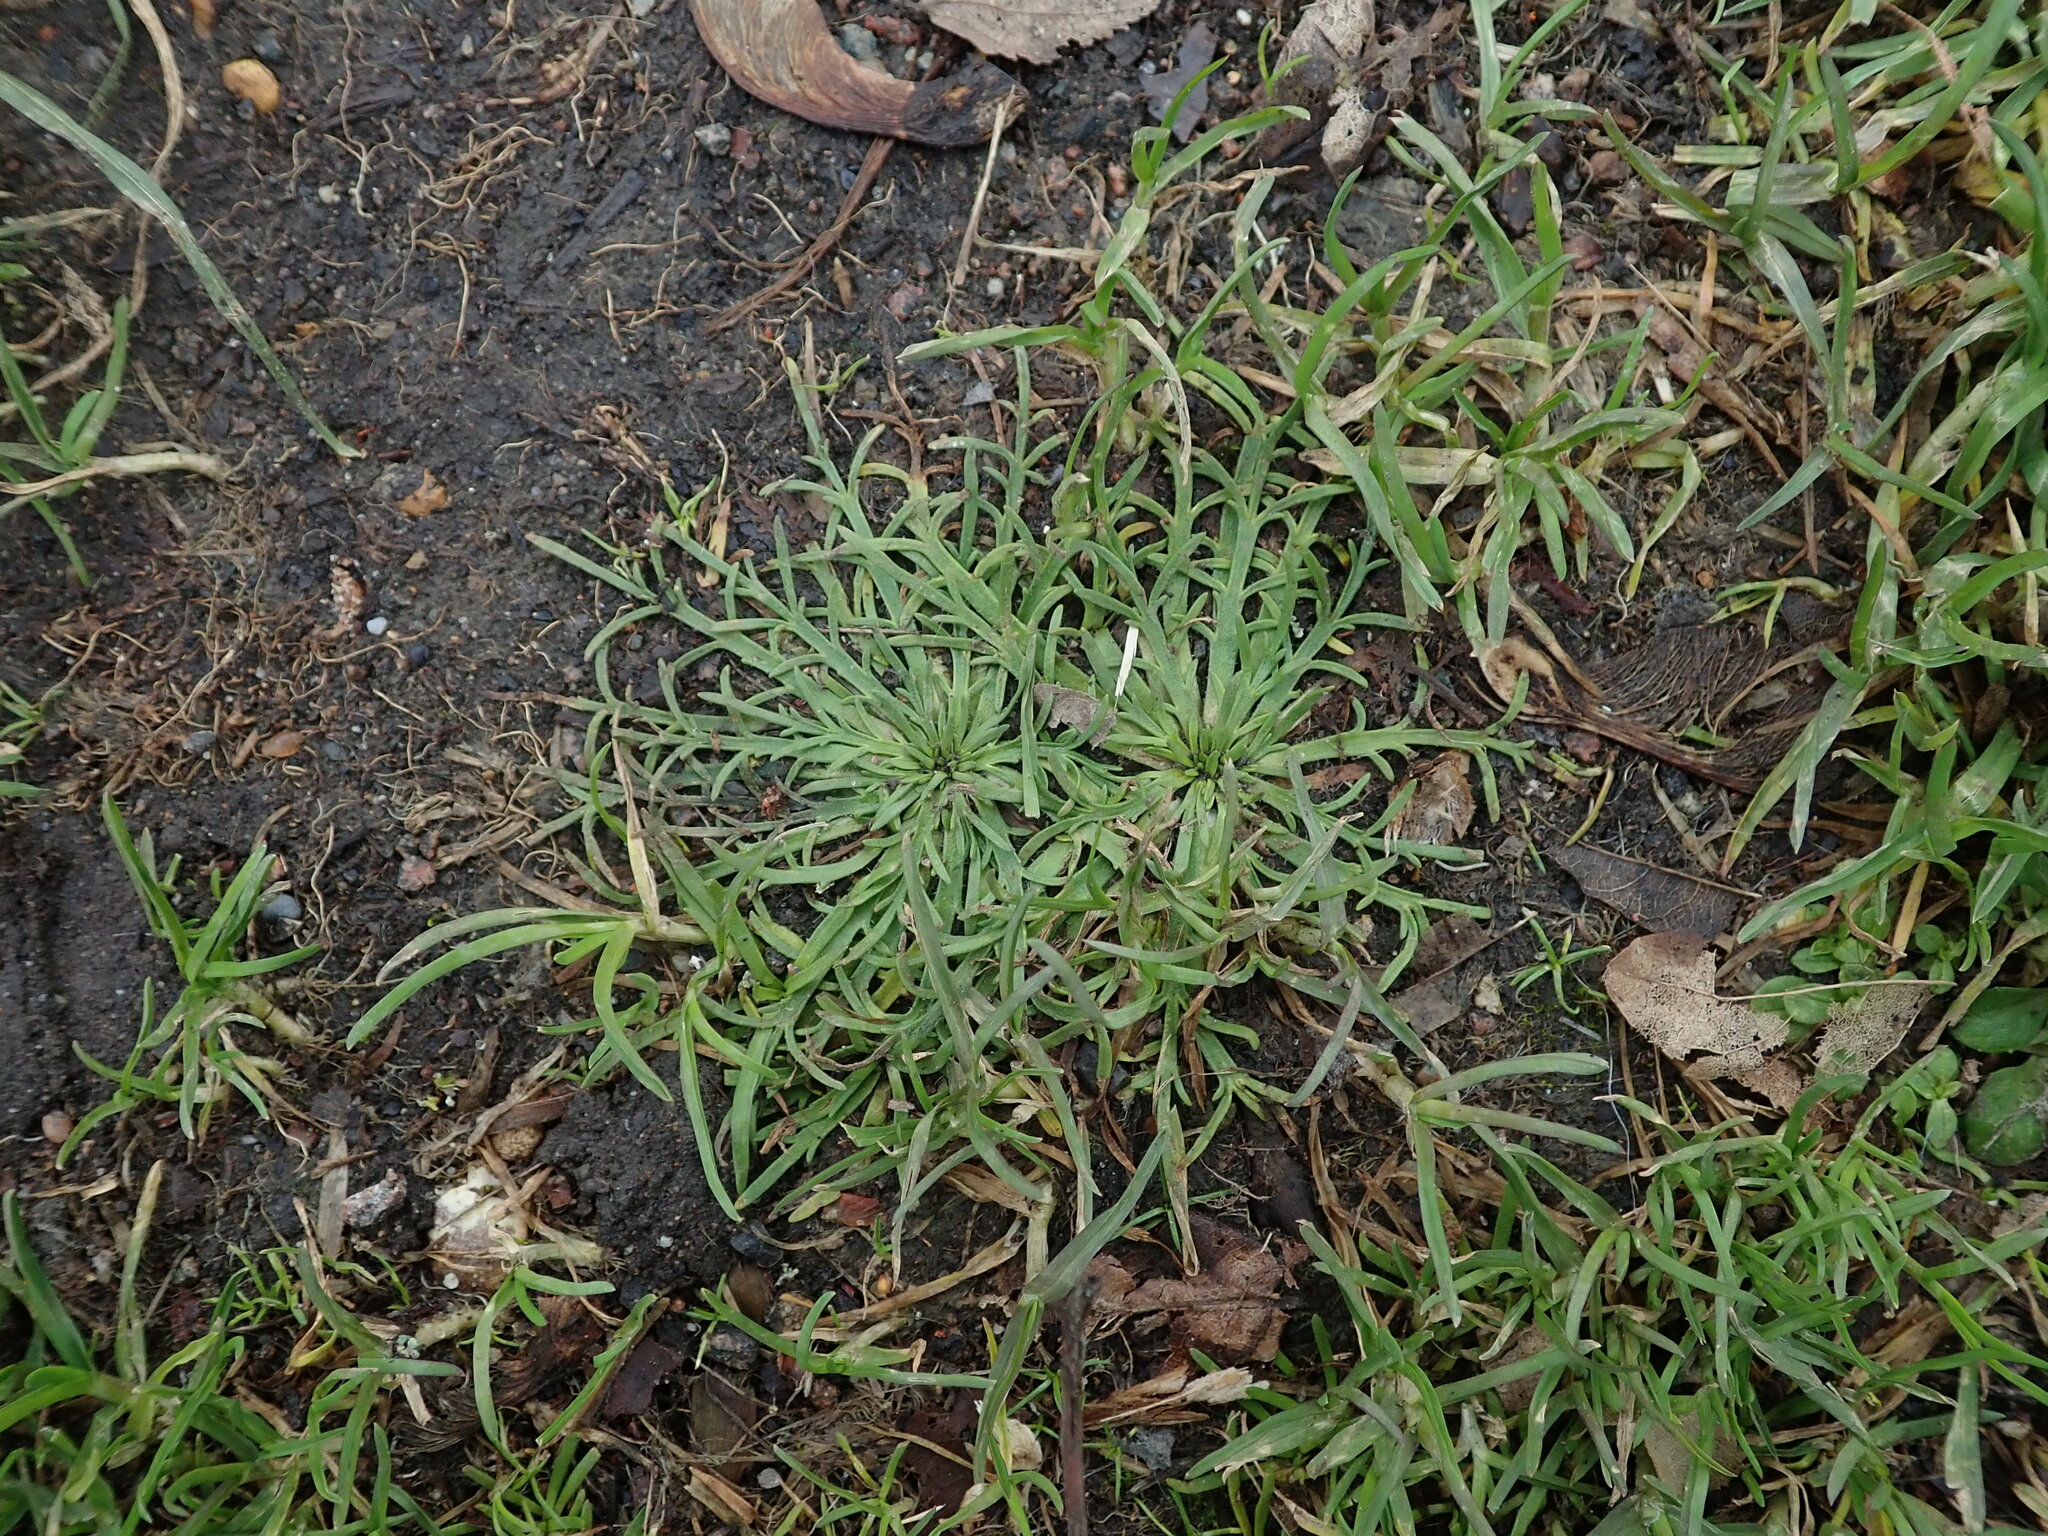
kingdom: Plantae
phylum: Tracheophyta
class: Magnoliopsida
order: Lamiales
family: Plantaginaceae
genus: Plantago
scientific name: Plantago coronopus
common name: Buck's-horn plantain
